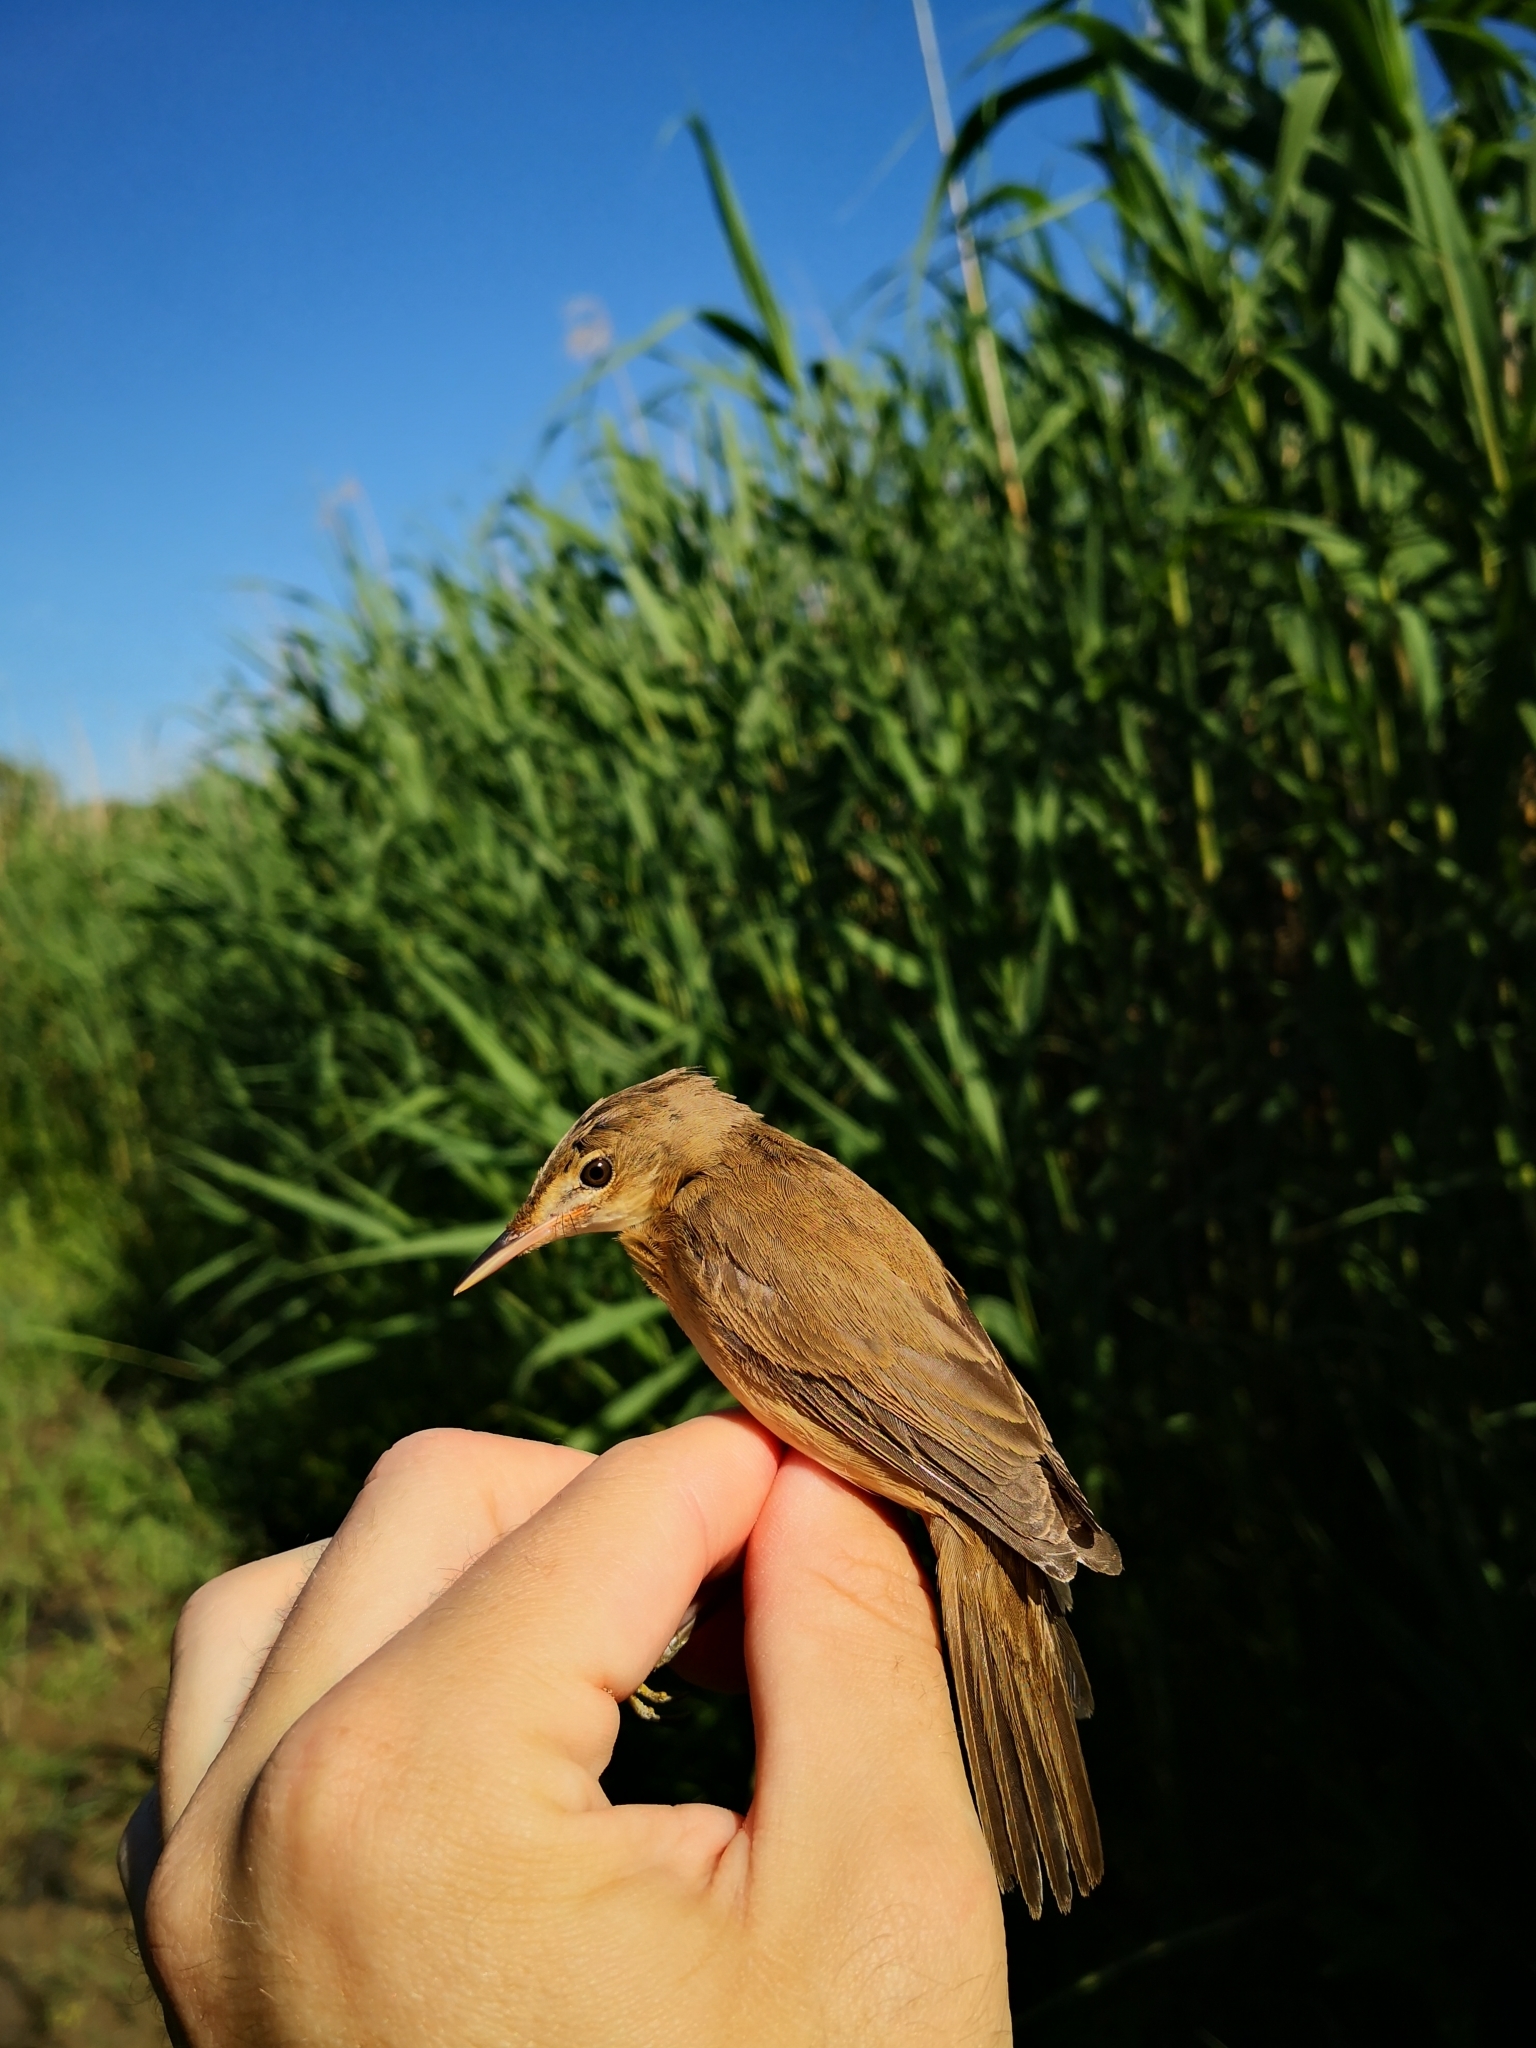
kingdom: Animalia
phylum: Chordata
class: Aves
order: Passeriformes
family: Acrocephalidae
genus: Acrocephalus
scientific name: Acrocephalus scirpaceus
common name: Eurasian reed warbler
